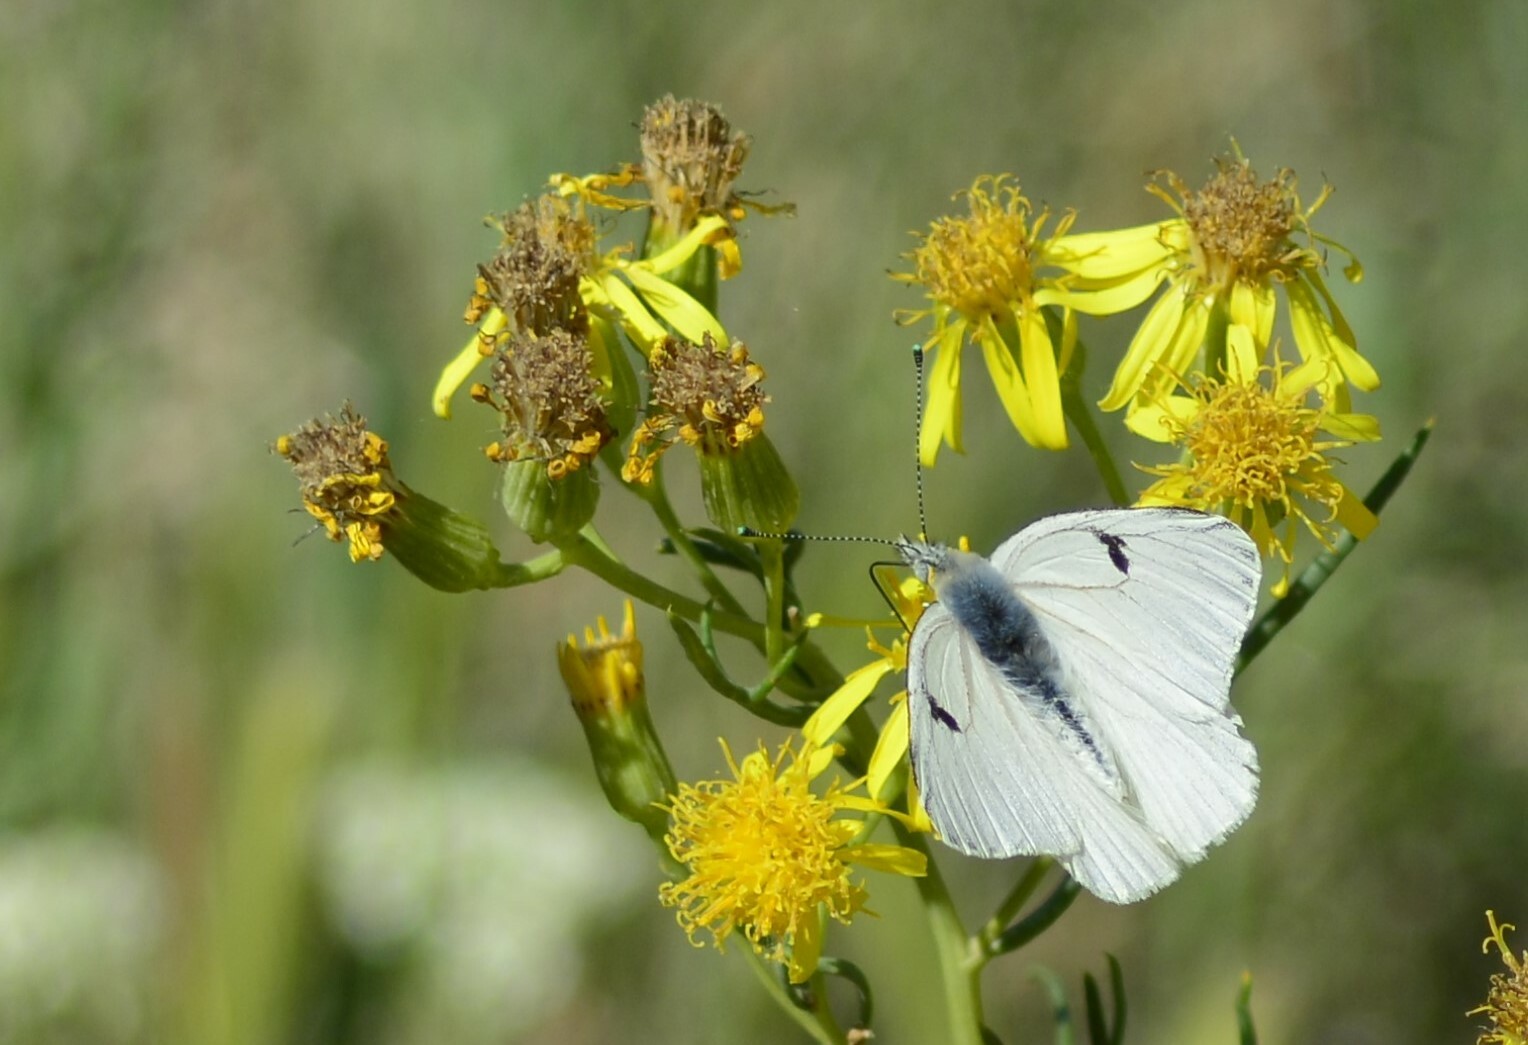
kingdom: Animalia
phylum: Arthropoda
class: Insecta
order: Lepidoptera
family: Pieridae
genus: Tatochila
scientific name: Tatochila mercedis
